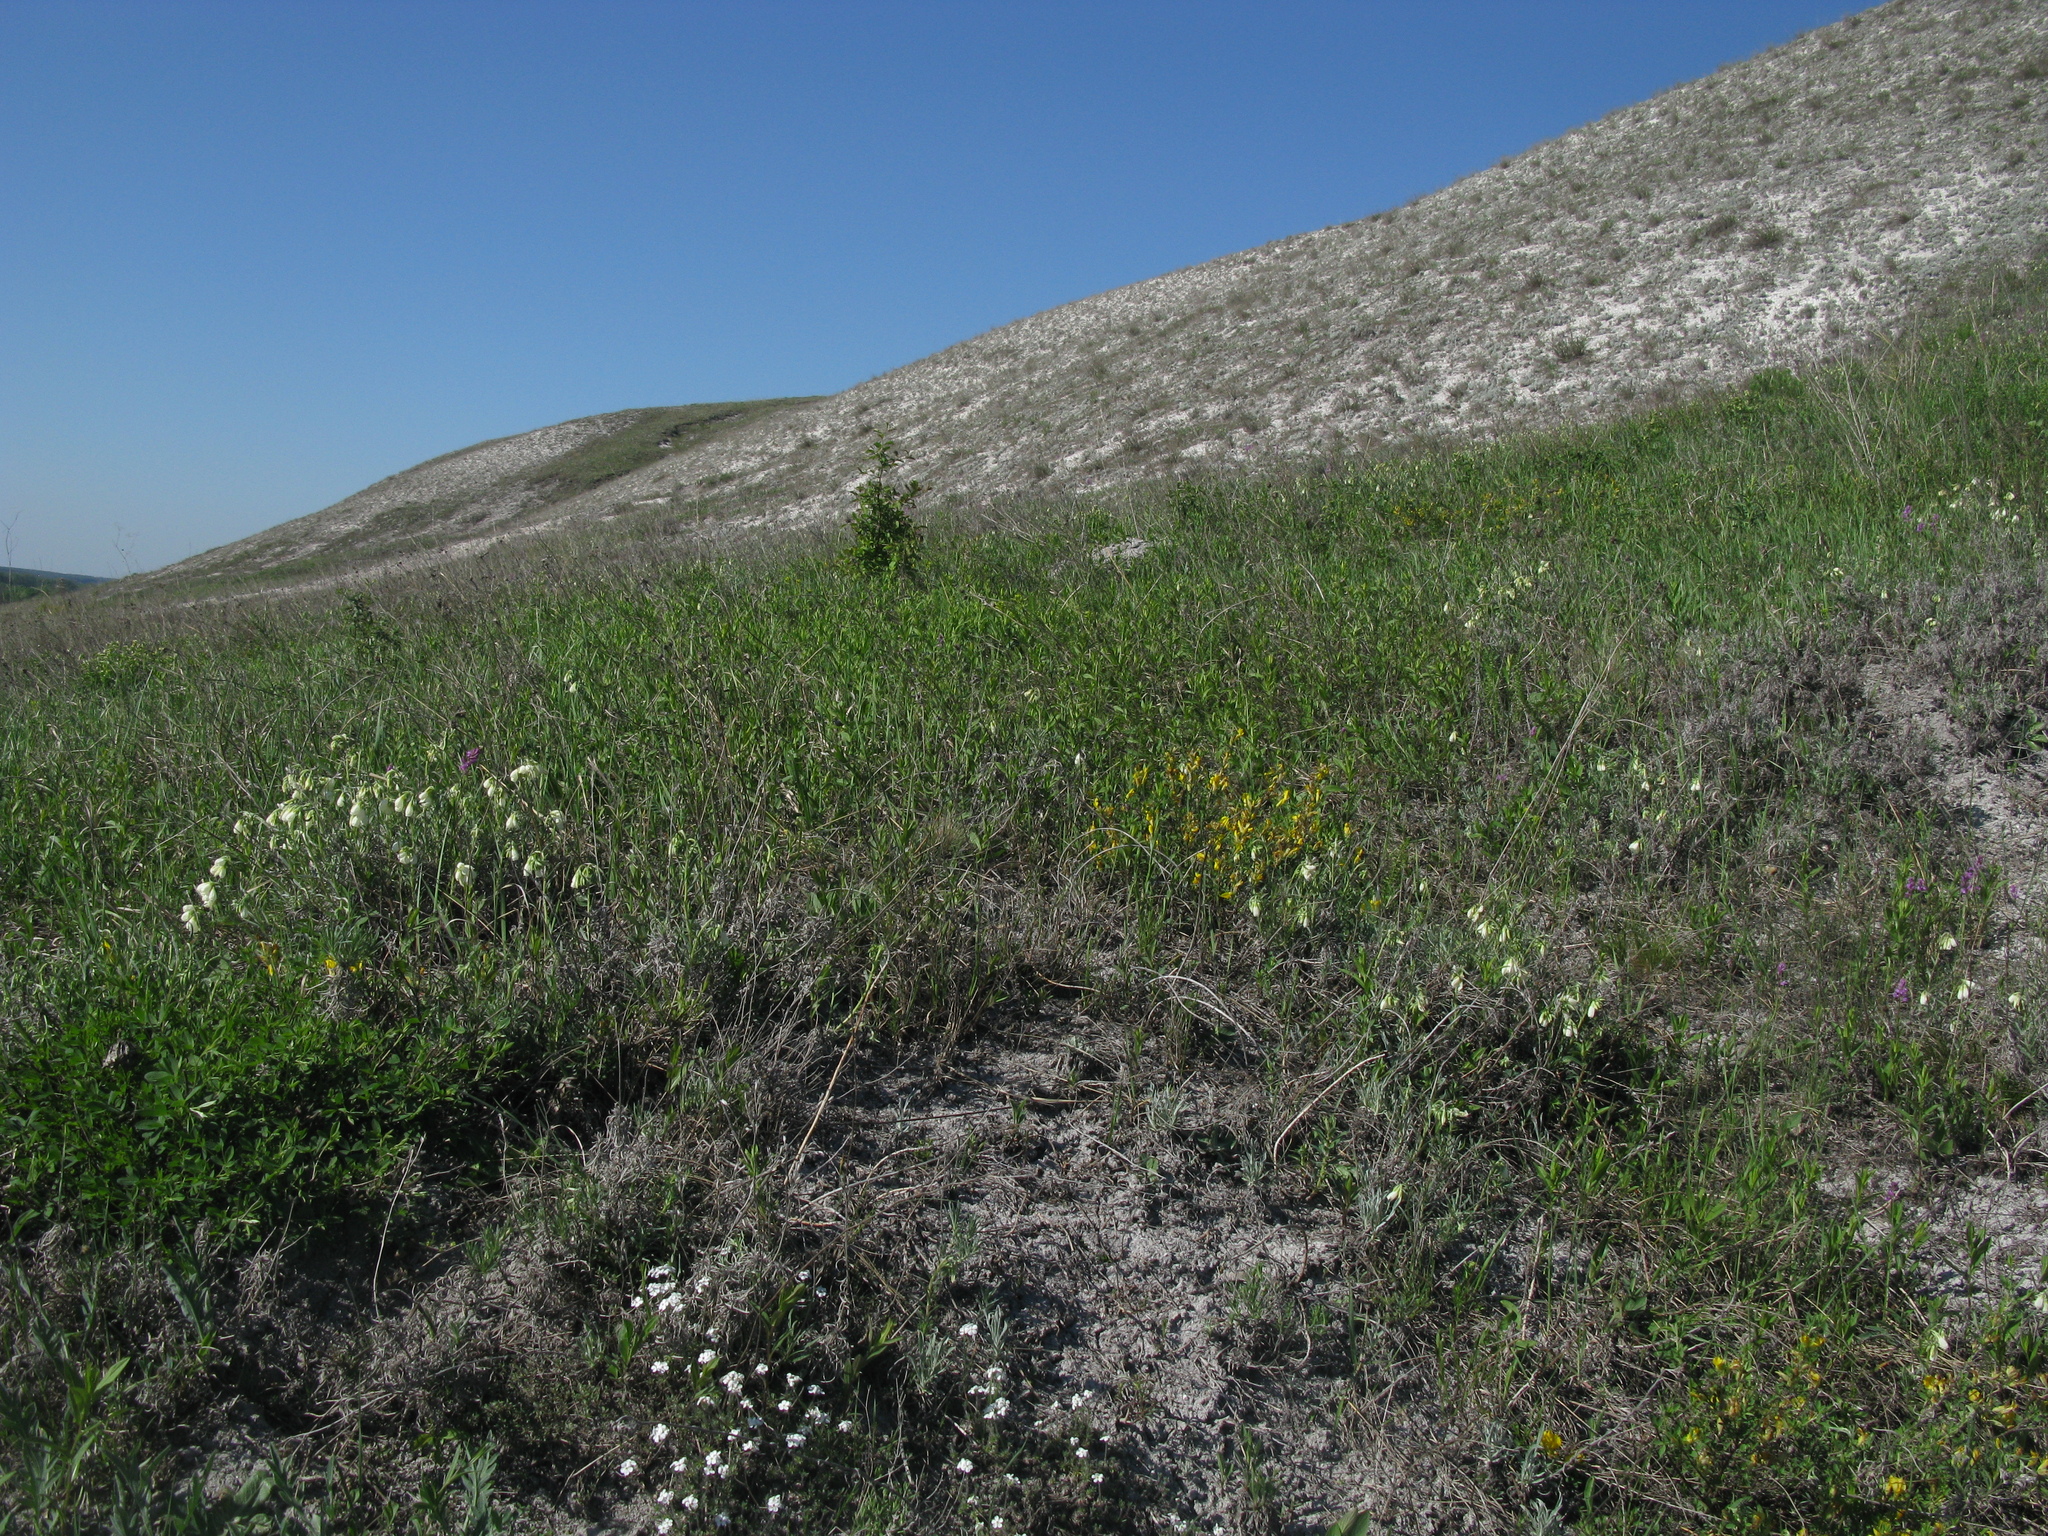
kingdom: Plantae
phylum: Tracheophyta
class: Magnoliopsida
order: Ericales
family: Primulaceae
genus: Androsace
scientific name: Androsace villosa
